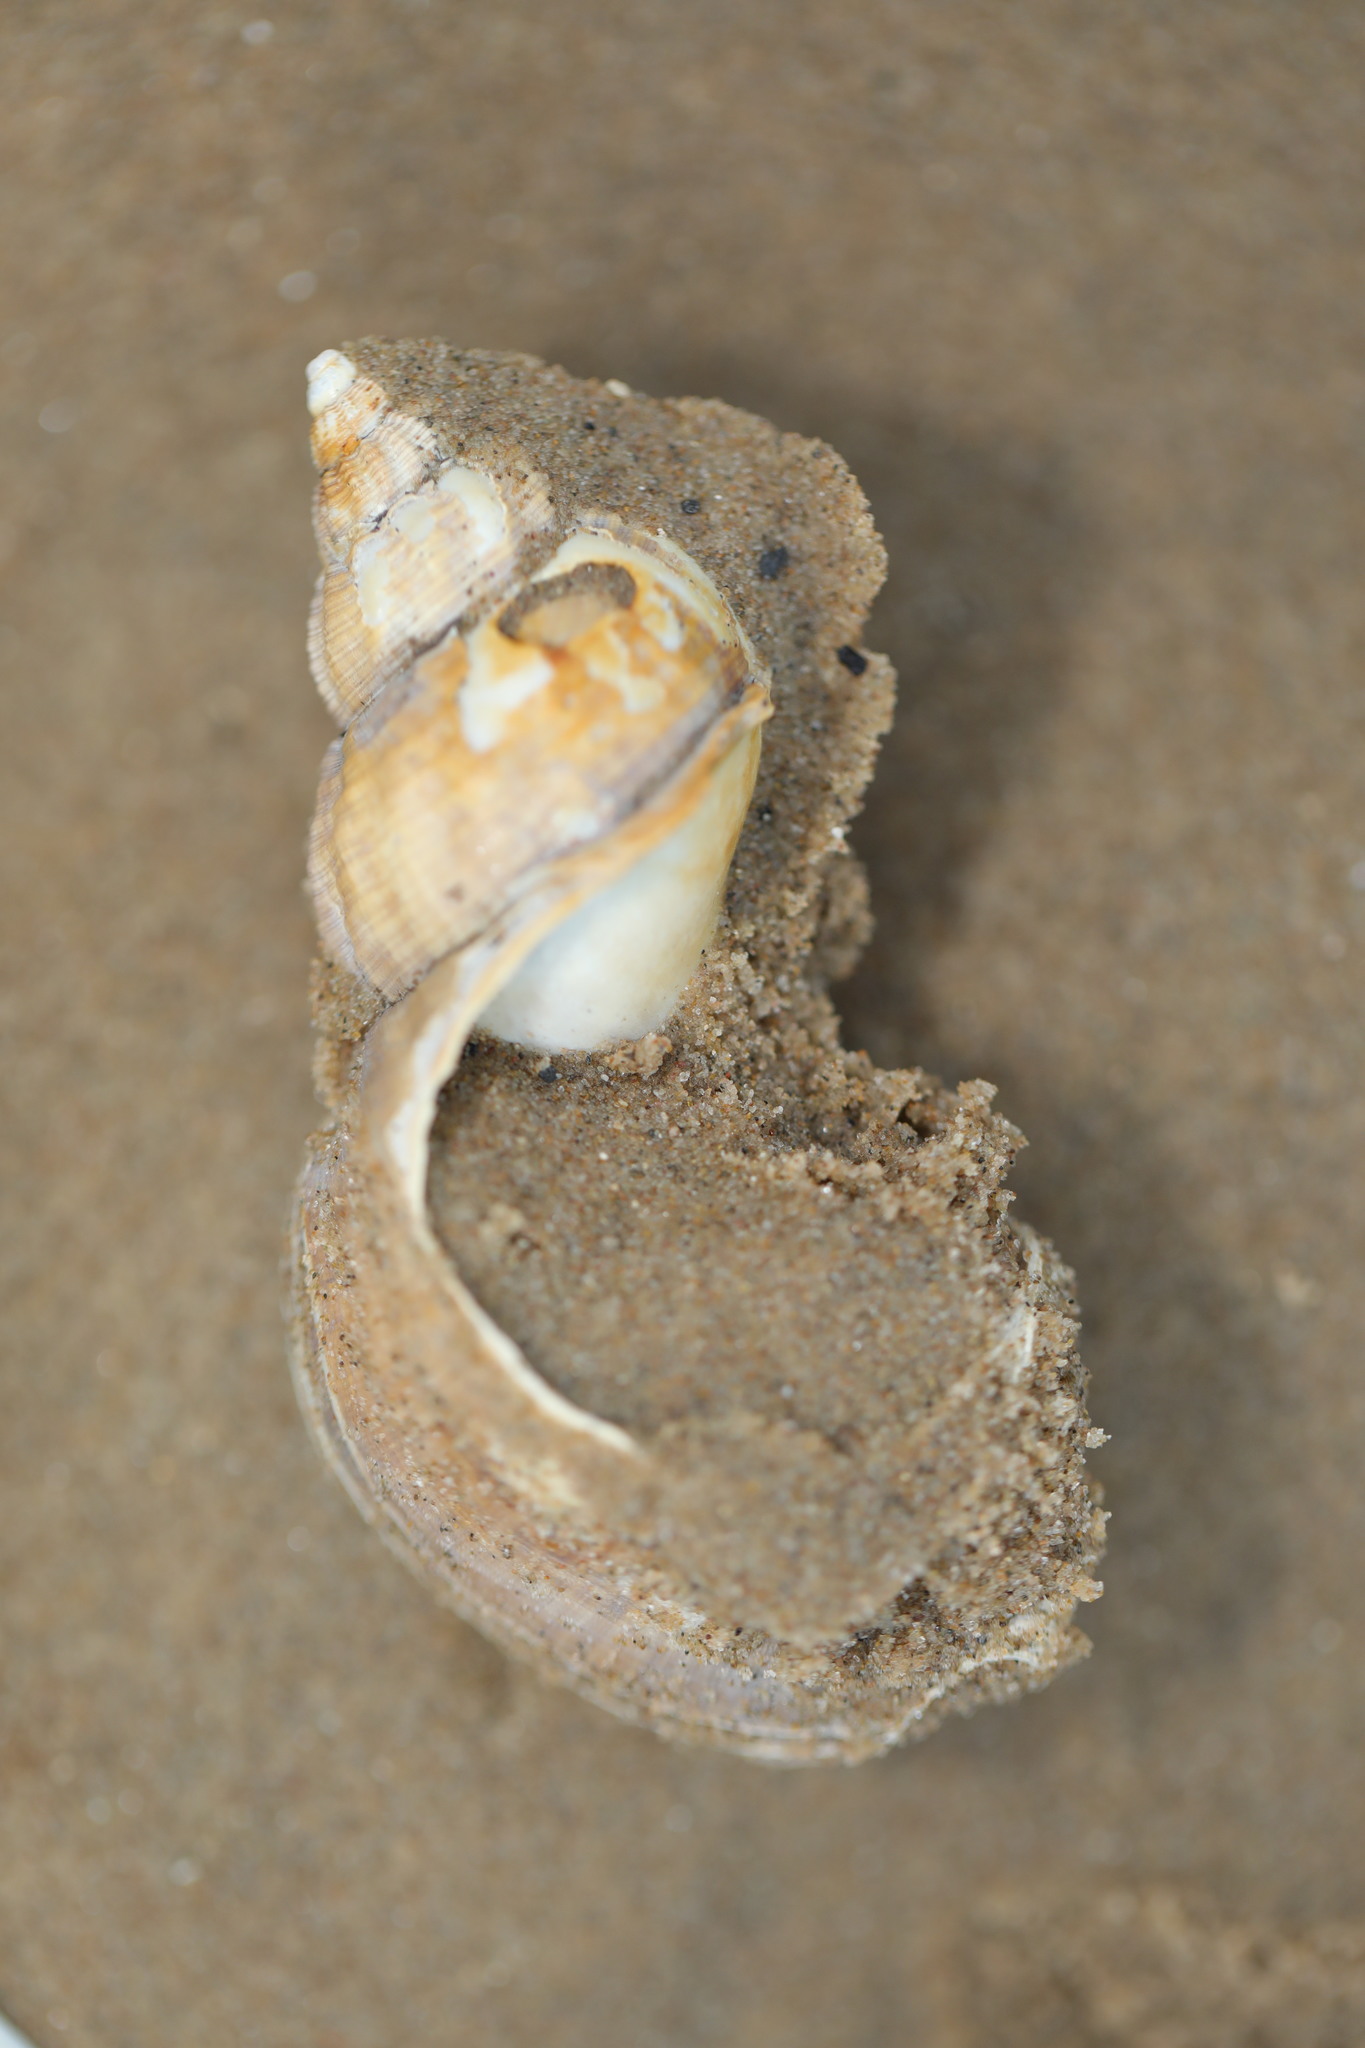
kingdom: Animalia
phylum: Mollusca
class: Gastropoda
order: Neogastropoda
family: Buccinidae
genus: Buccinum
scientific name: Buccinum undatum
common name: Common whelk
